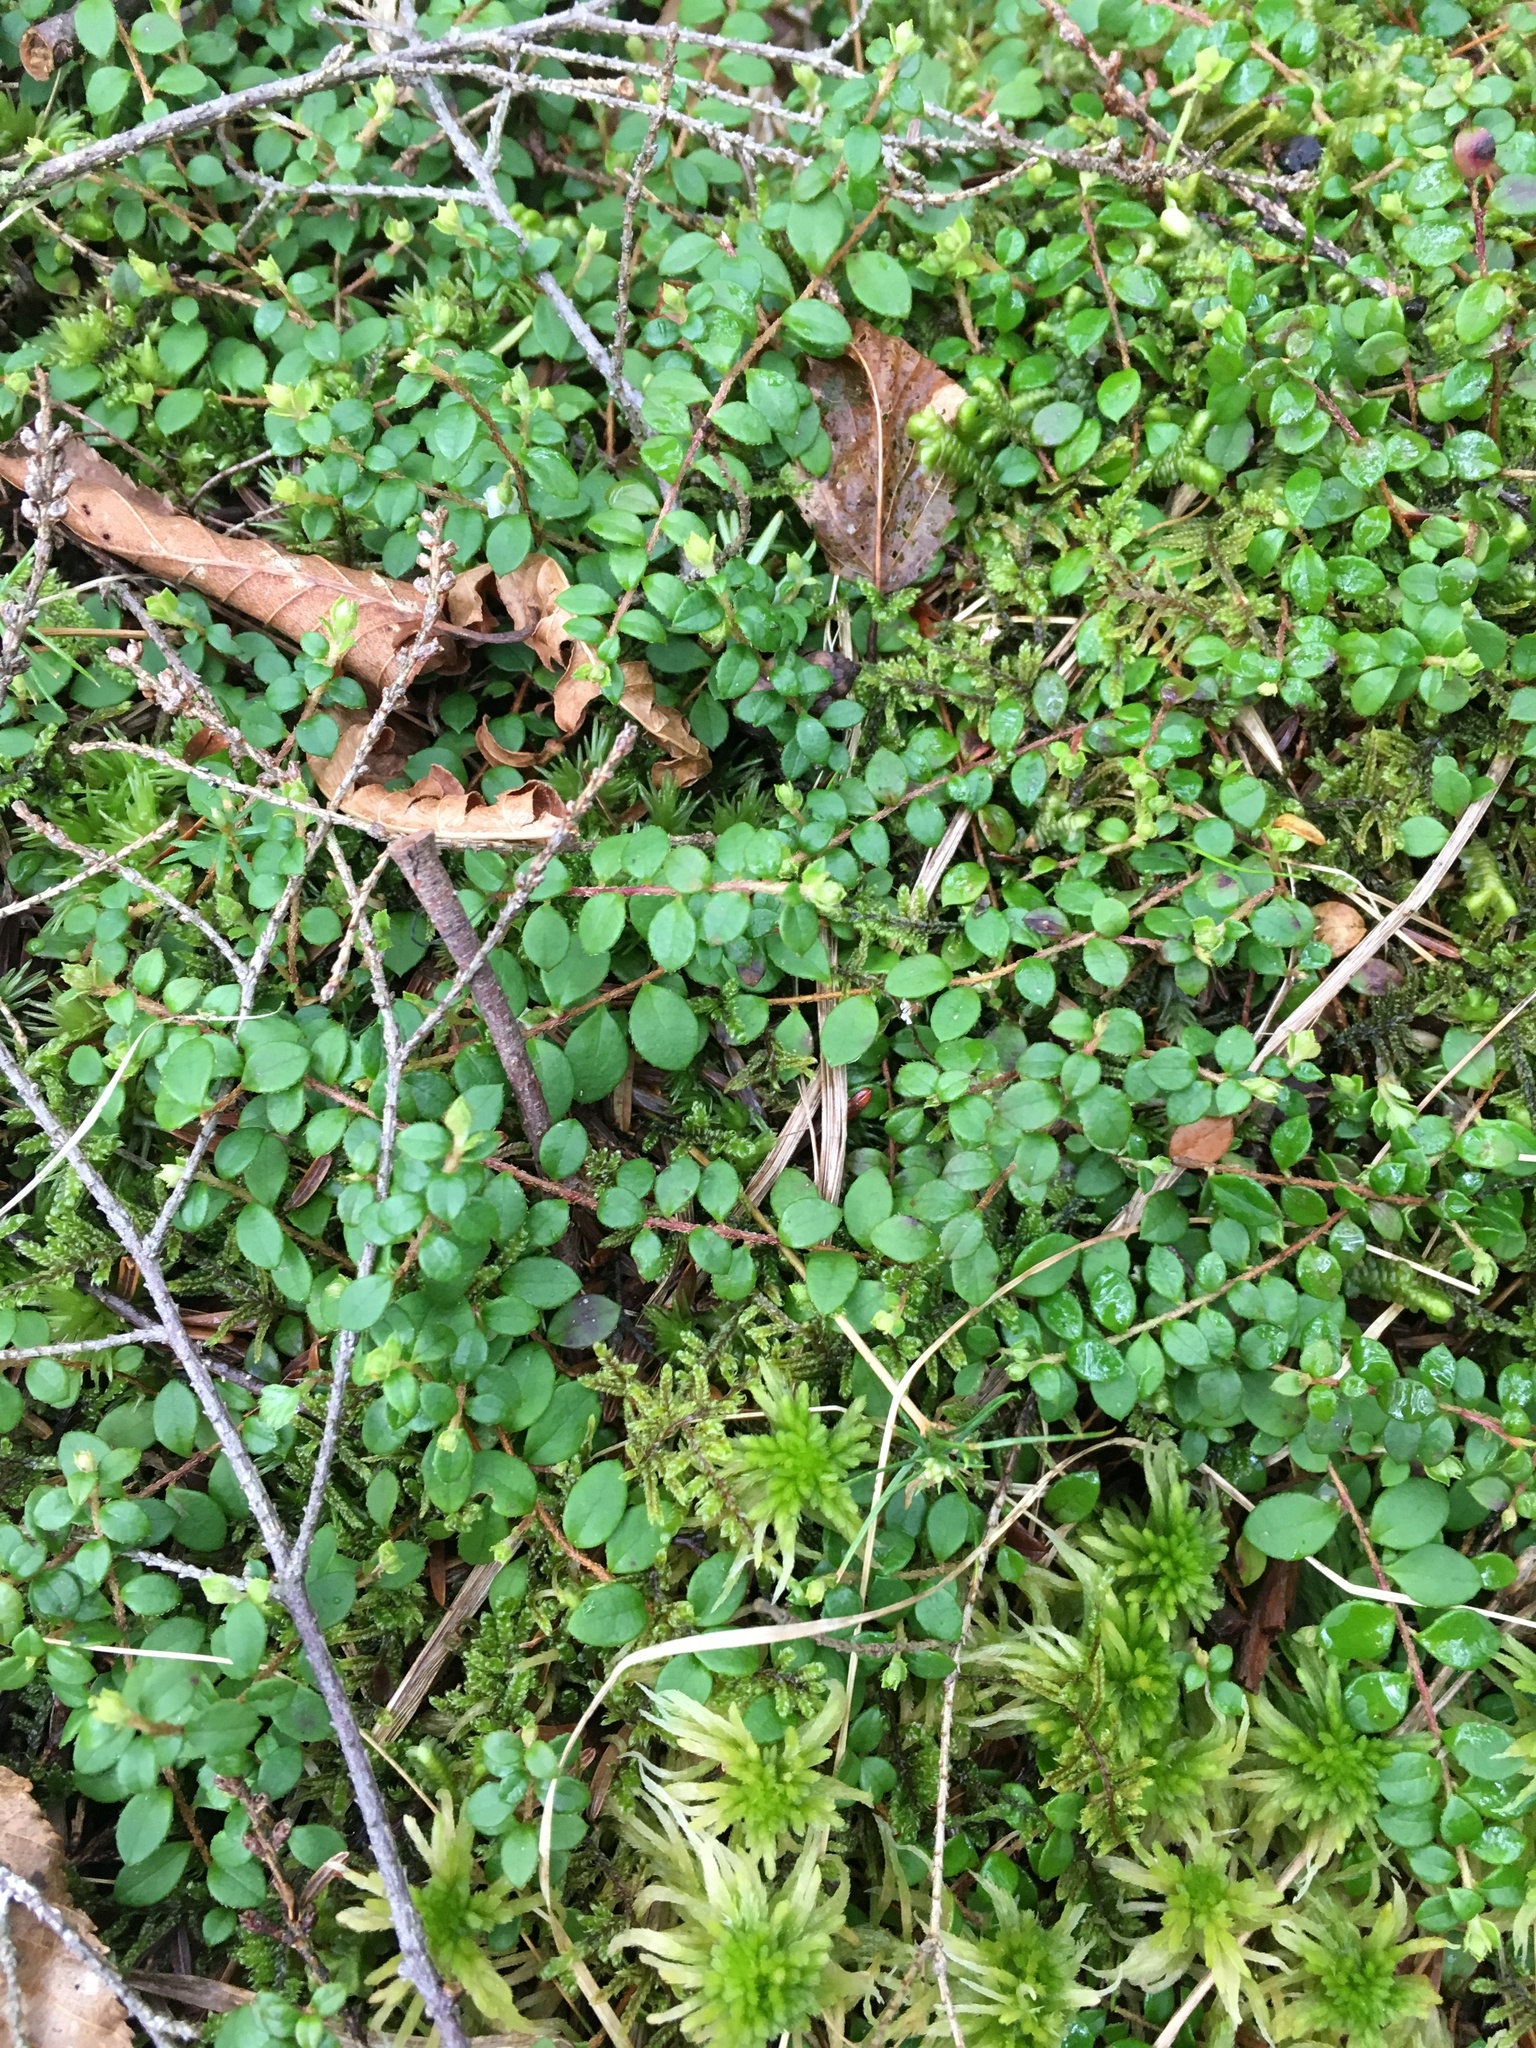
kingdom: Plantae
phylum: Tracheophyta
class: Magnoliopsida
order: Ericales
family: Ericaceae
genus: Gaultheria
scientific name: Gaultheria hispidula
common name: Cancer wintergreen
